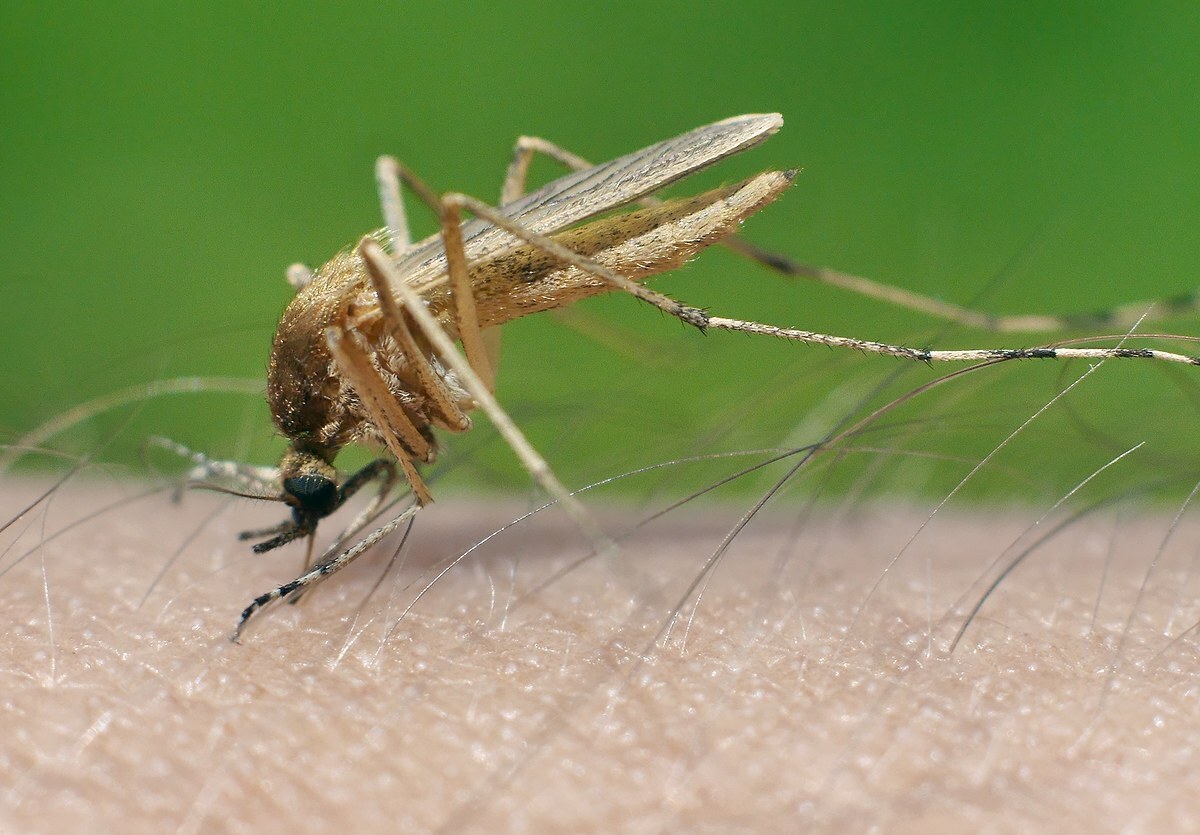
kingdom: Animalia
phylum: Arthropoda
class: Insecta
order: Diptera
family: Culicidae
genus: Aedes
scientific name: Aedes flavescens
